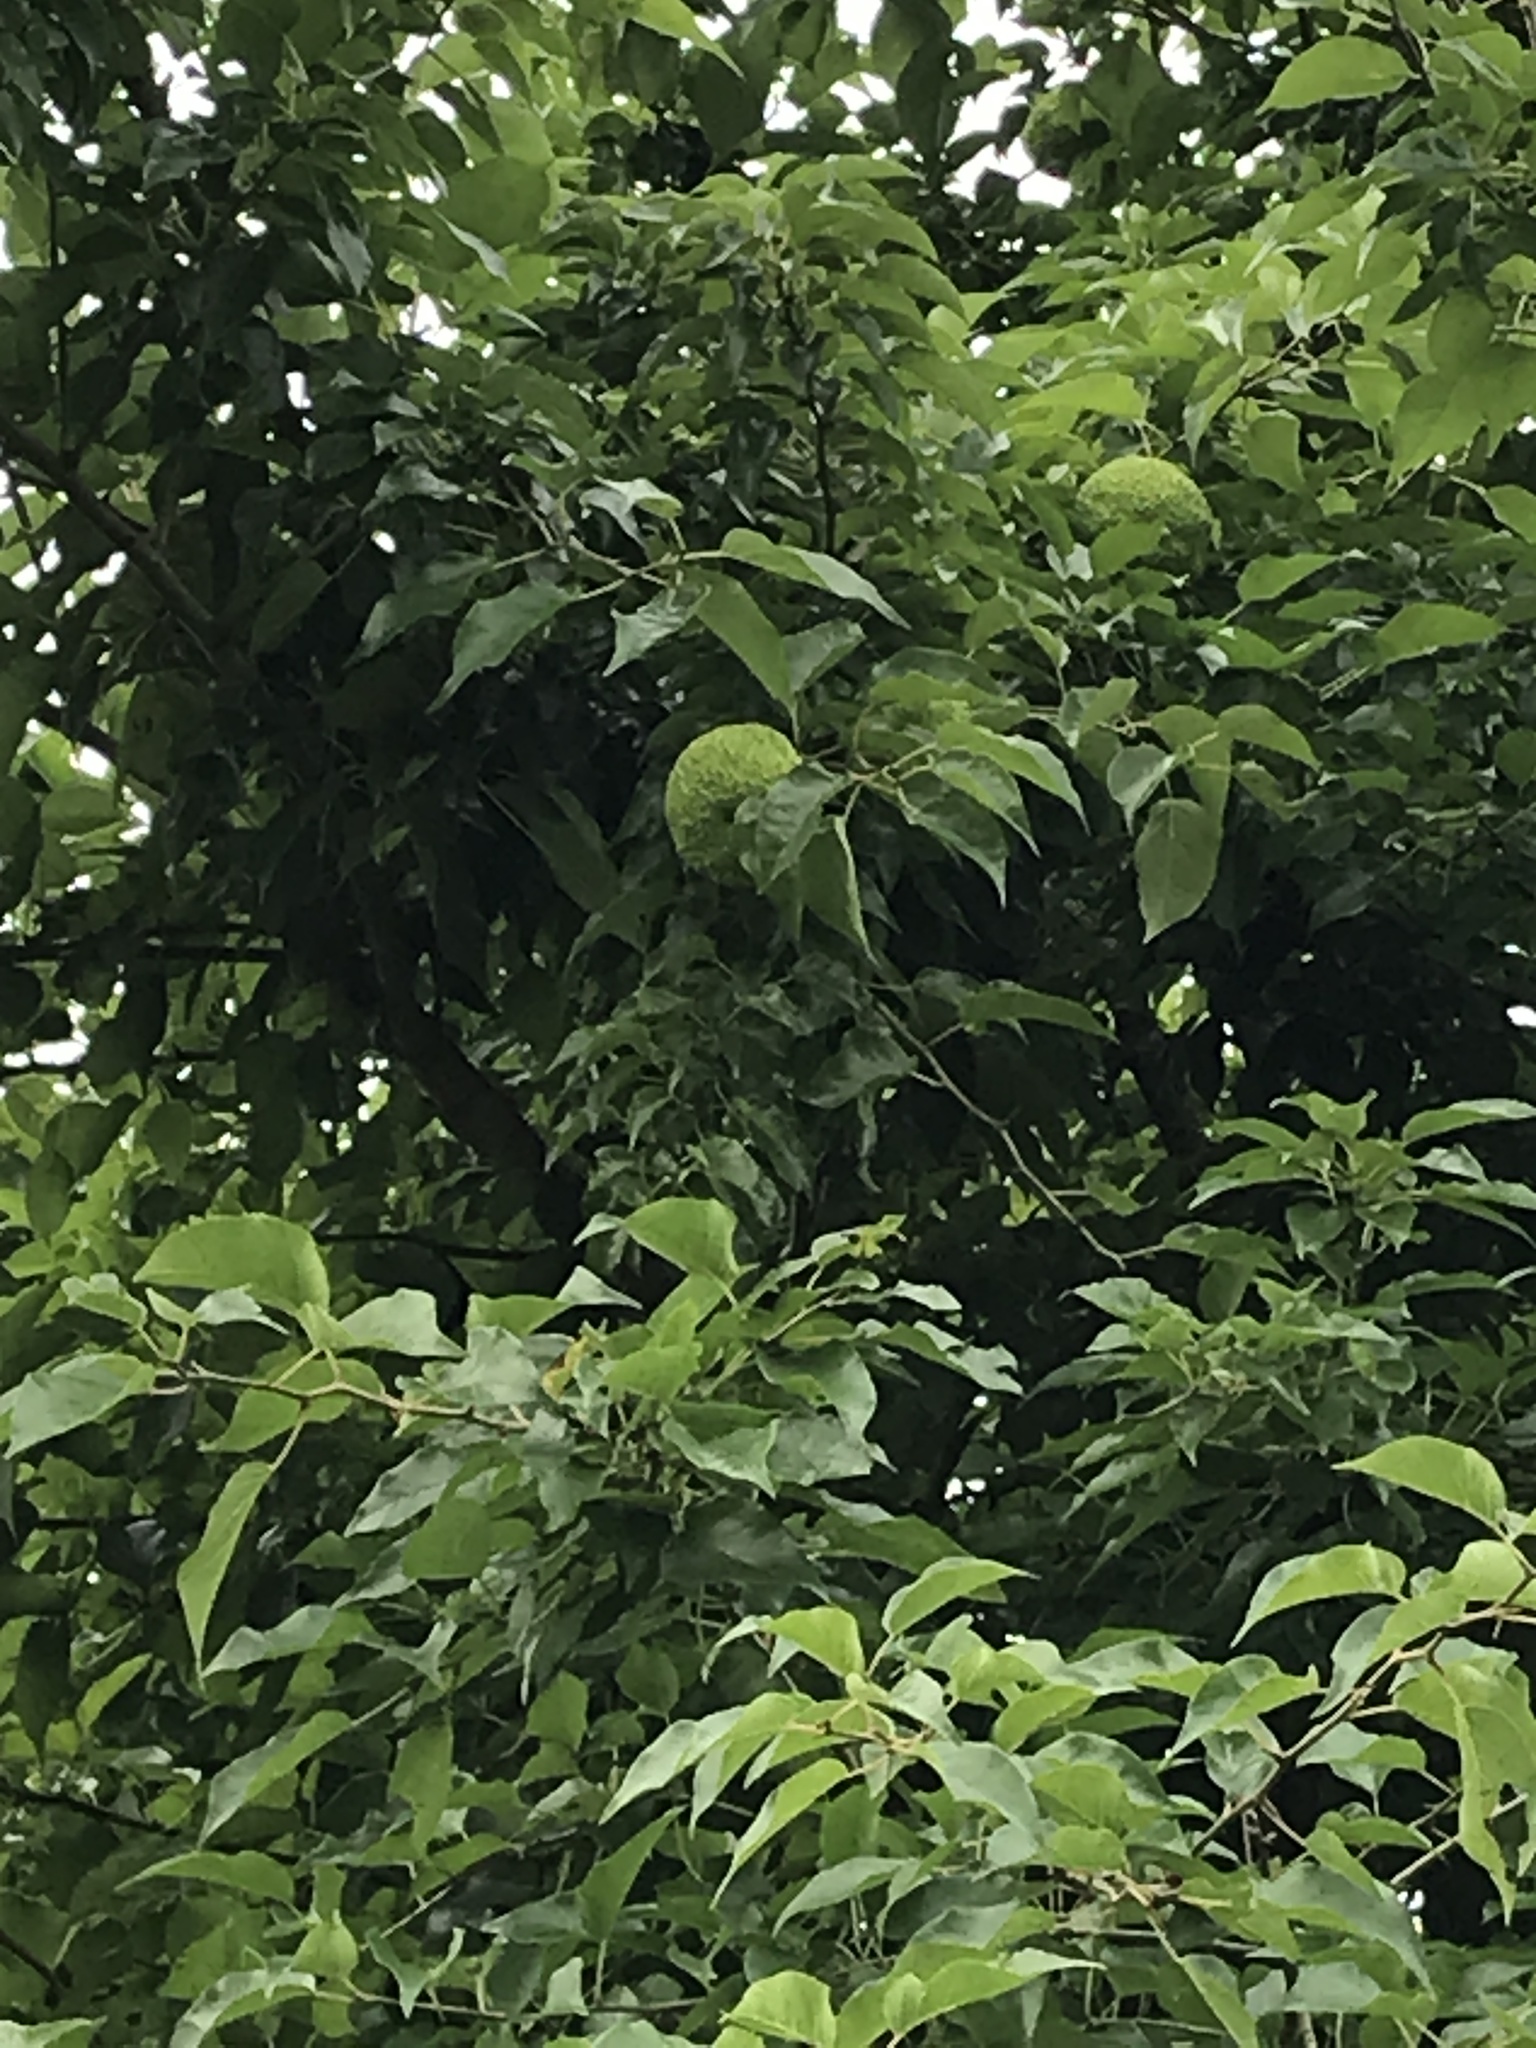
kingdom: Plantae
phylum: Tracheophyta
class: Magnoliopsida
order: Rosales
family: Moraceae
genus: Maclura
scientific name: Maclura pomifera
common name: Osage-orange
